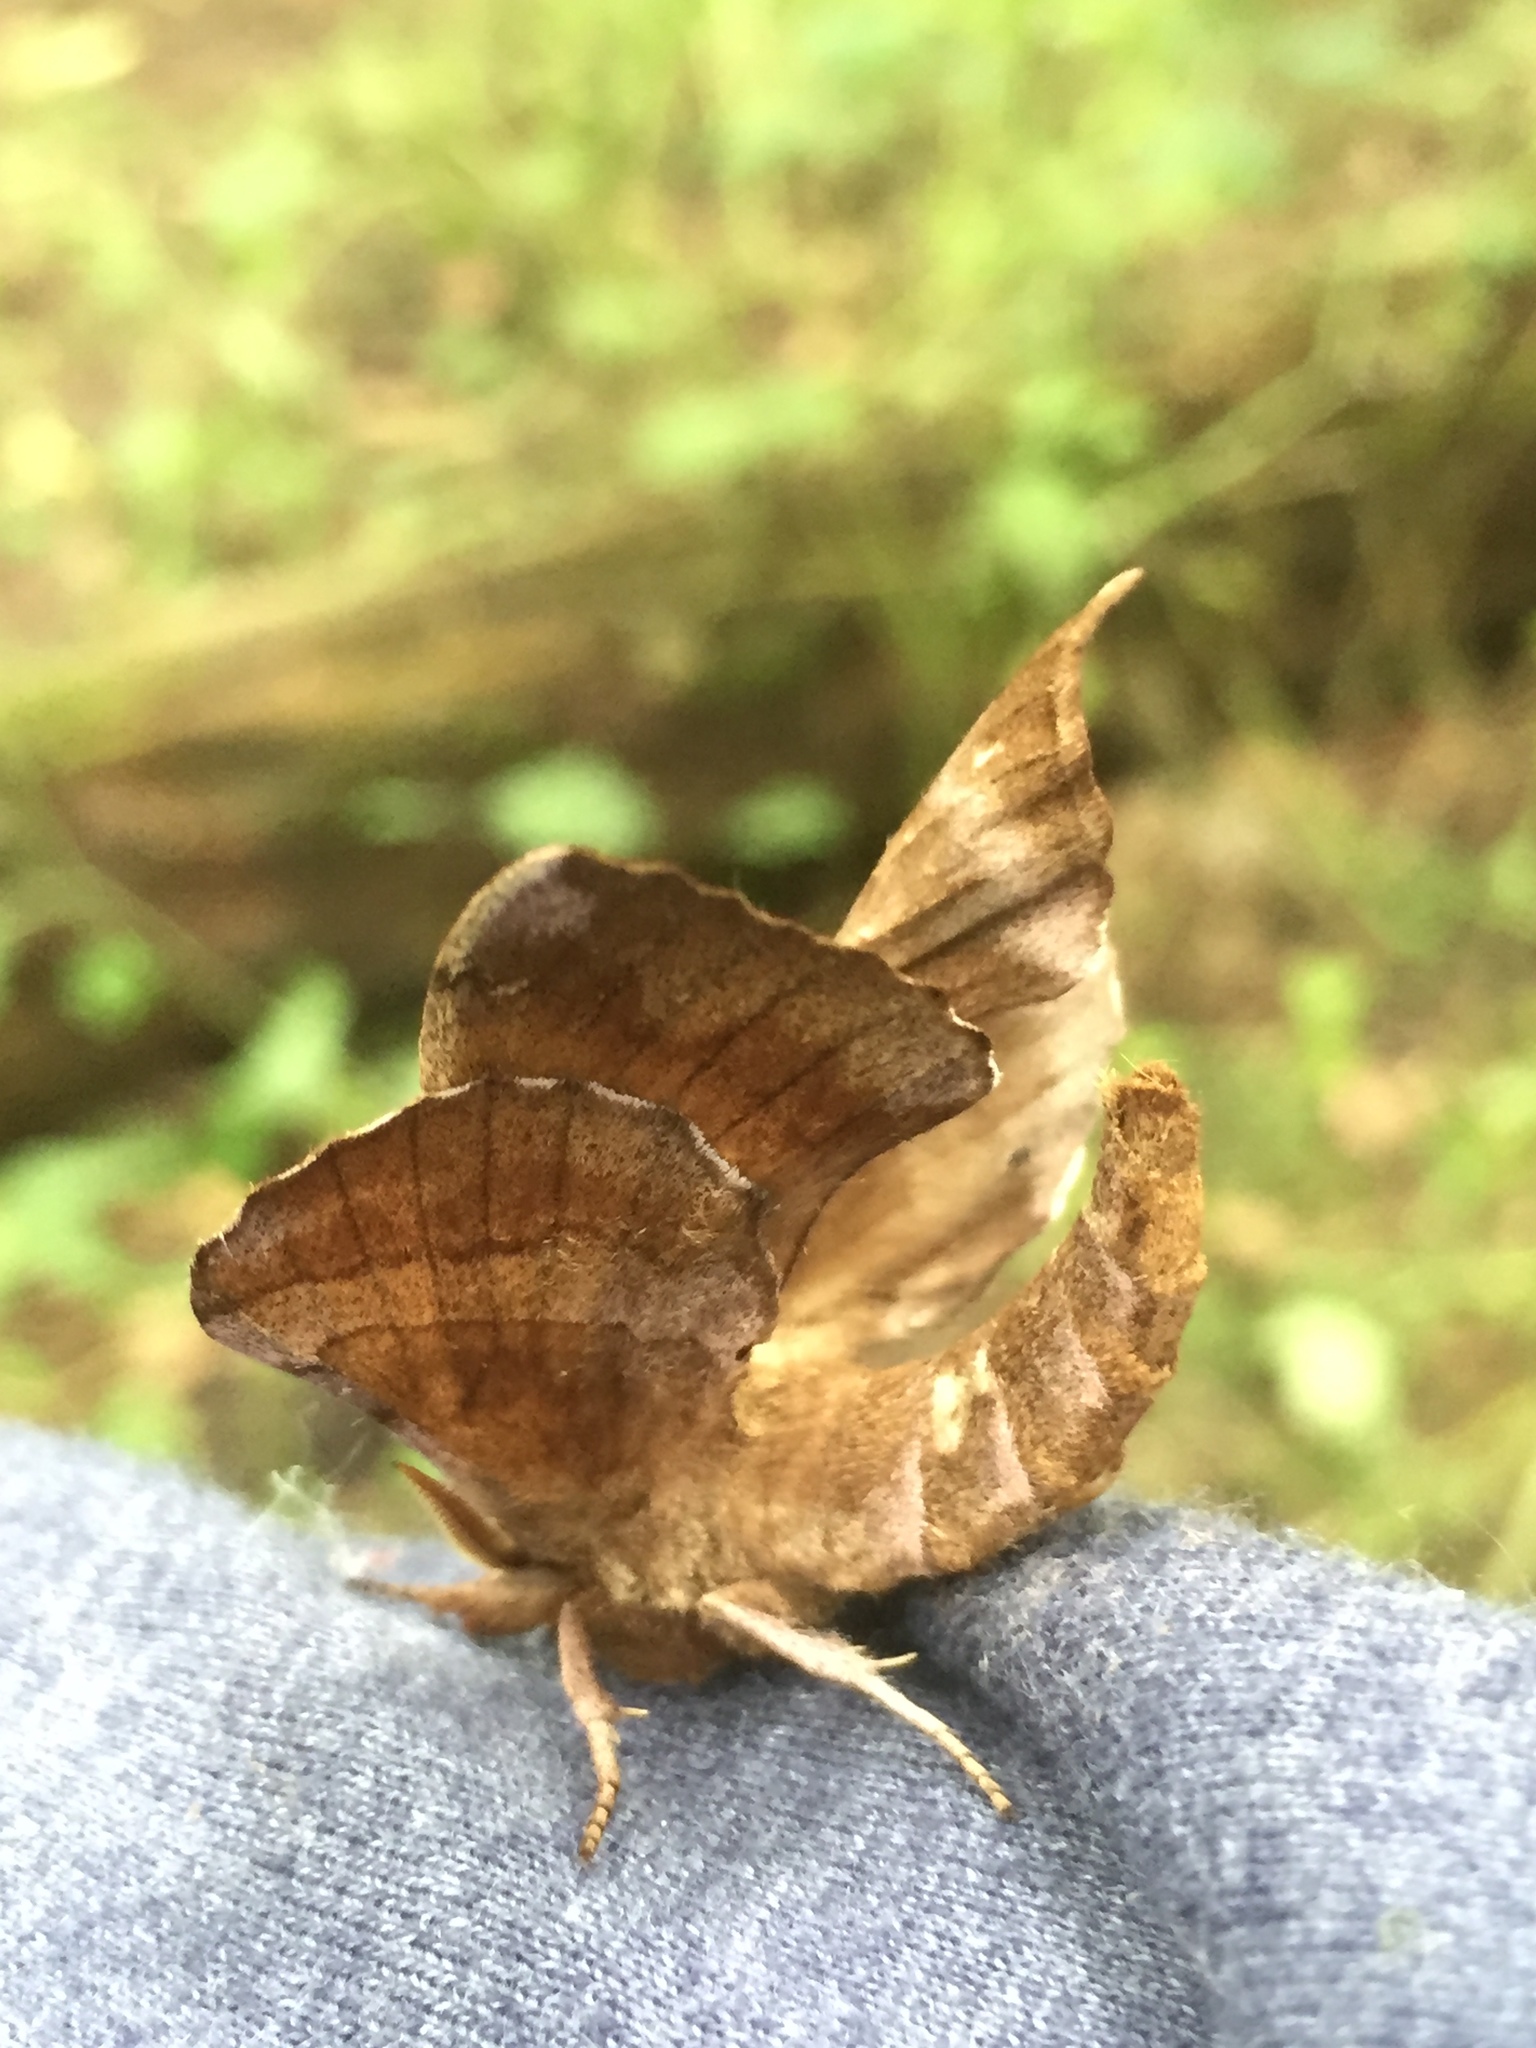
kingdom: Animalia
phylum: Arthropoda
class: Insecta
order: Lepidoptera
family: Sphingidae
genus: Amorpha
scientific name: Amorpha juglandis
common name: Walnut sphinx
